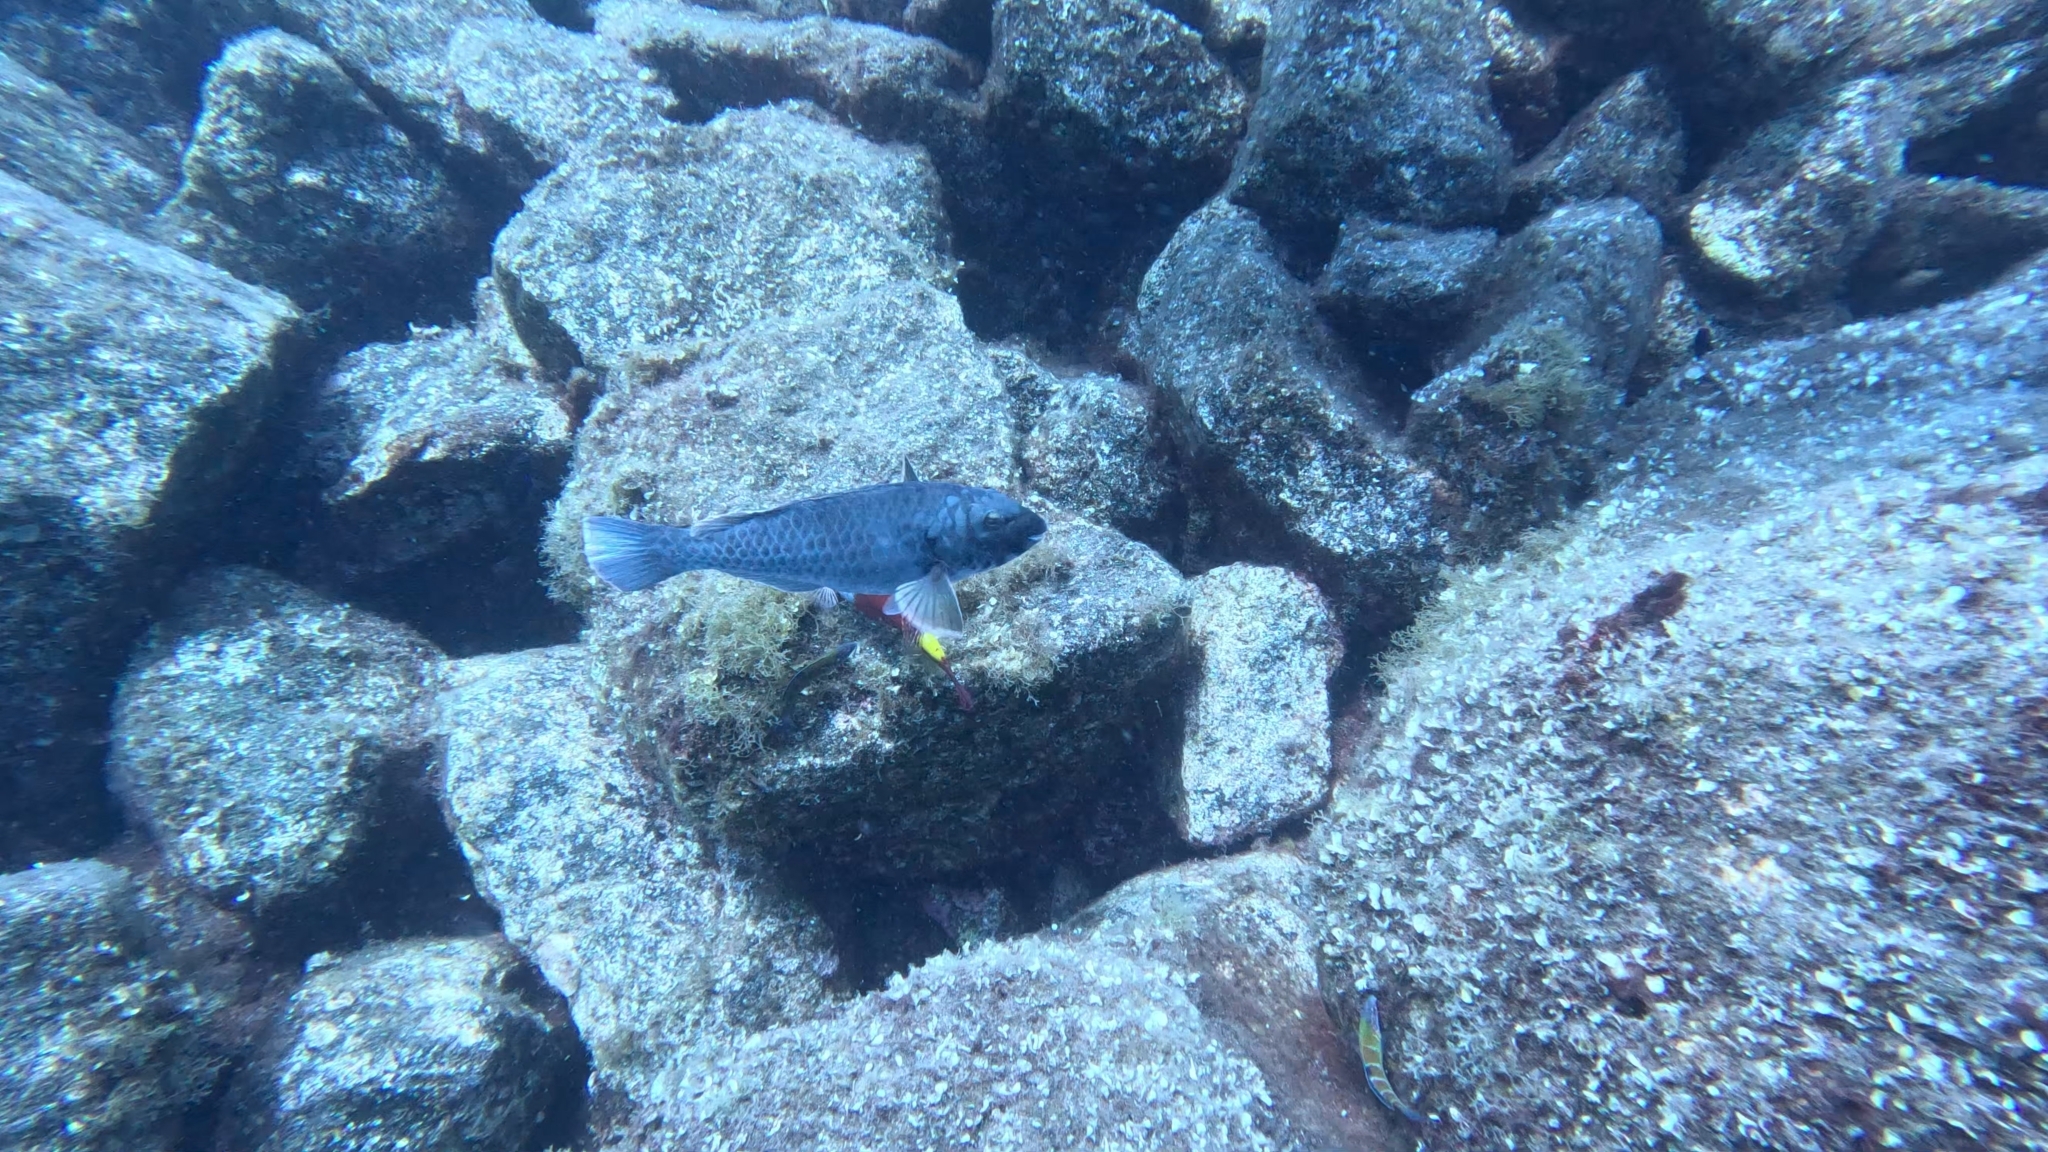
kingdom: Animalia
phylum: Chordata
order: Perciformes
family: Scaridae
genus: Sparisoma
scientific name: Sparisoma cretense
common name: Parrotfish
